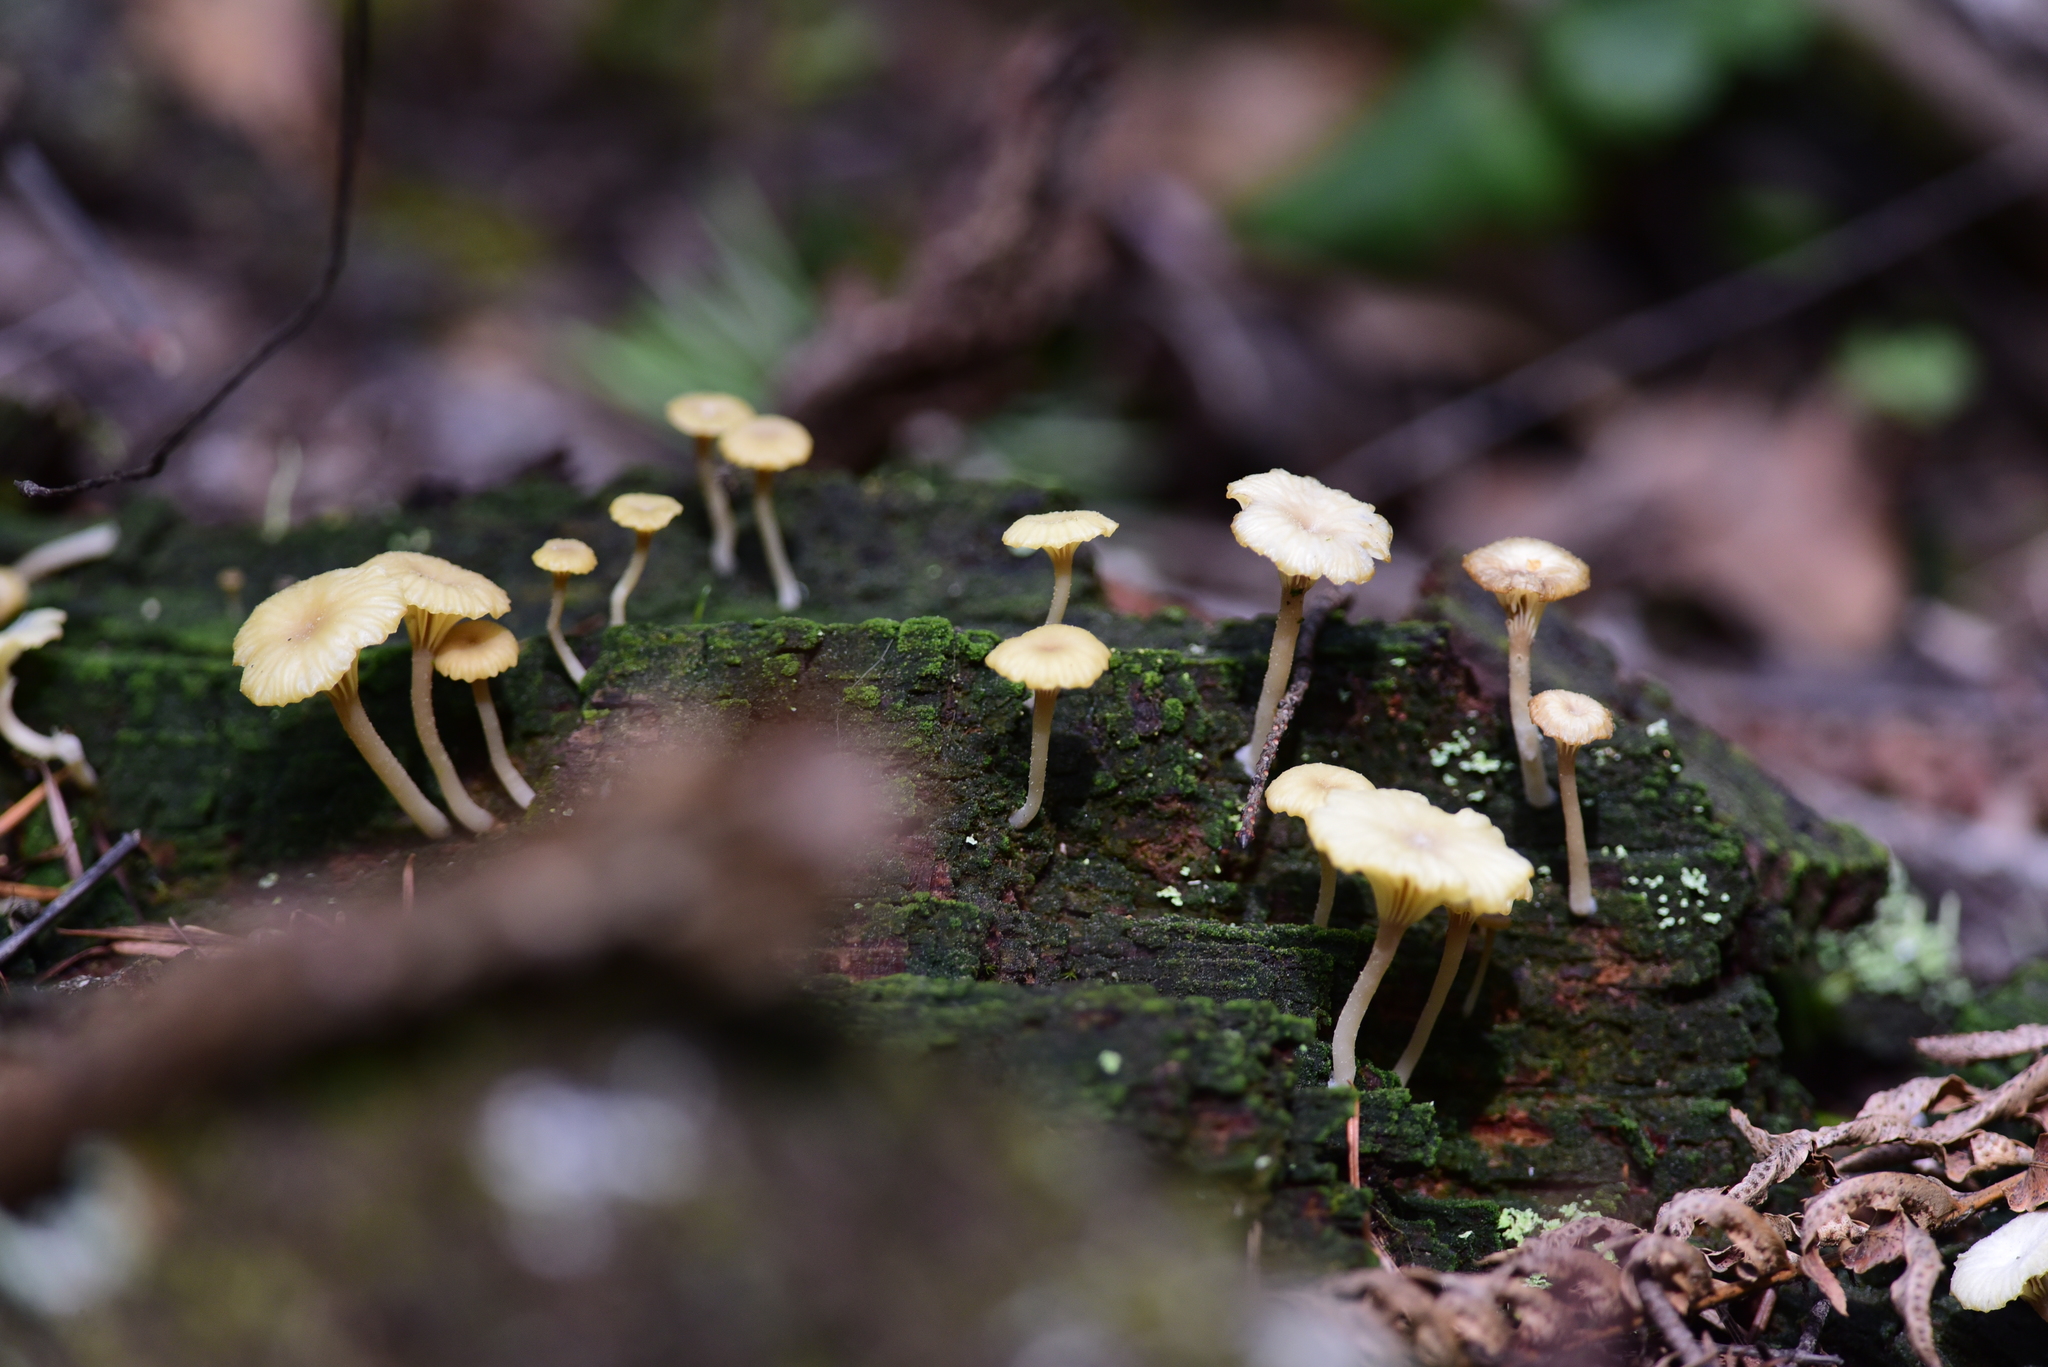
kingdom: Fungi
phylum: Basidiomycota
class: Agaricomycetes
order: Agaricales
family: Hygrophoraceae
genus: Lichenomphalia
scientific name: Lichenomphalia
